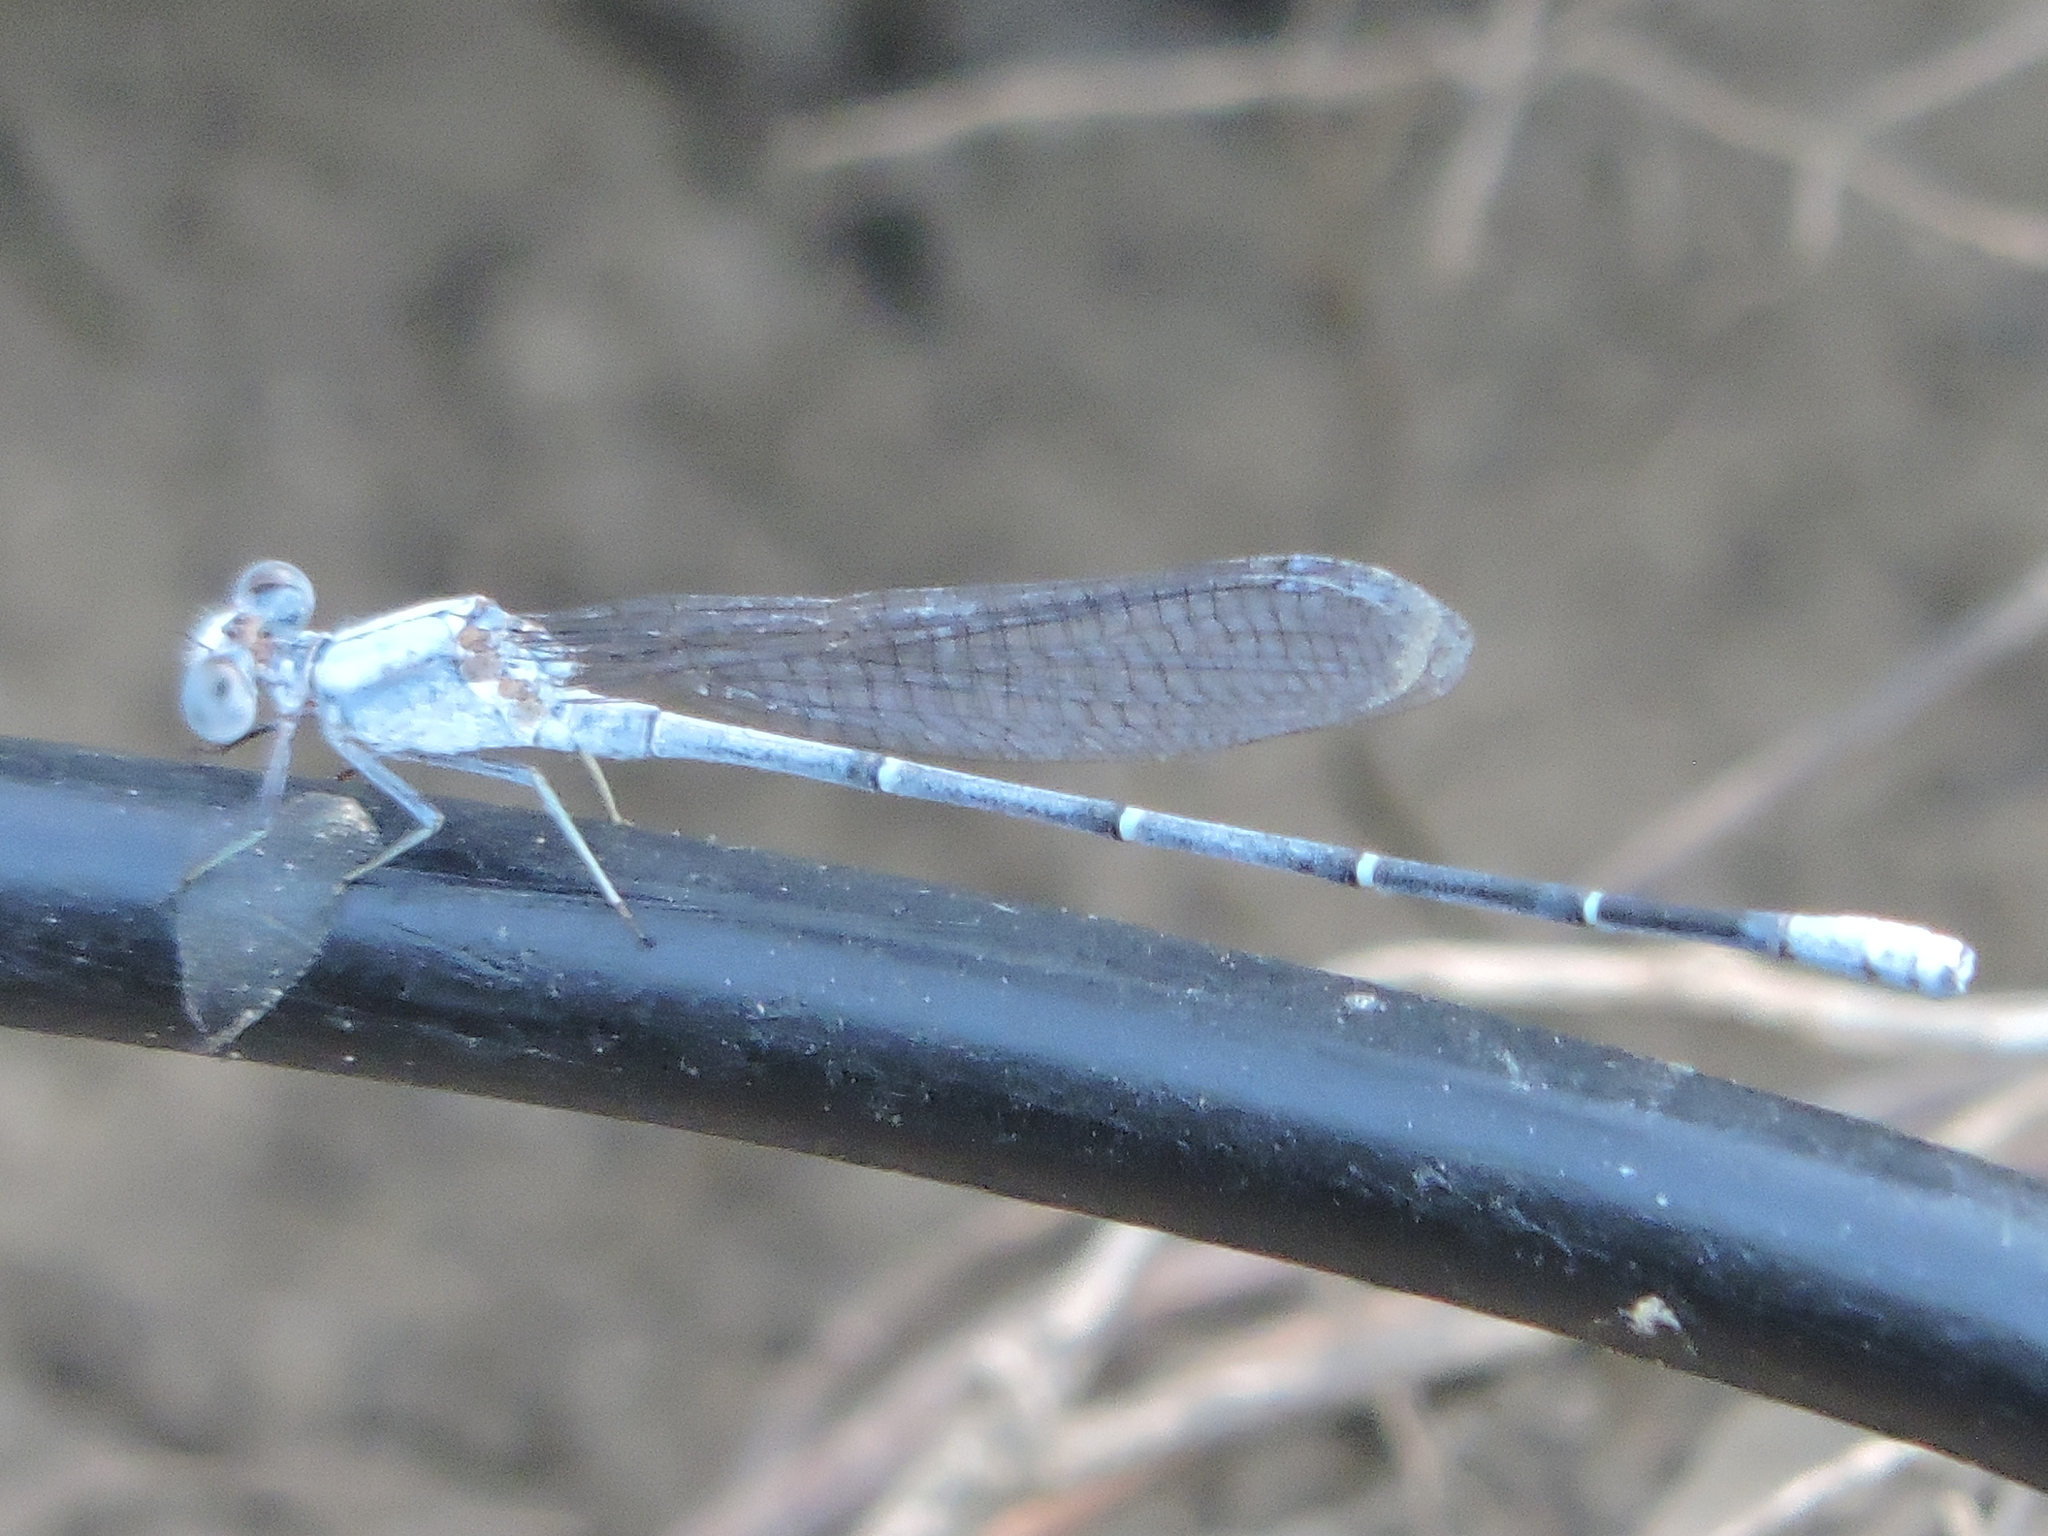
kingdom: Animalia
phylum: Arthropoda
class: Insecta
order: Odonata
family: Coenagrionidae
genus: Argia
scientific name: Argia moesta
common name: Powdered dancer
